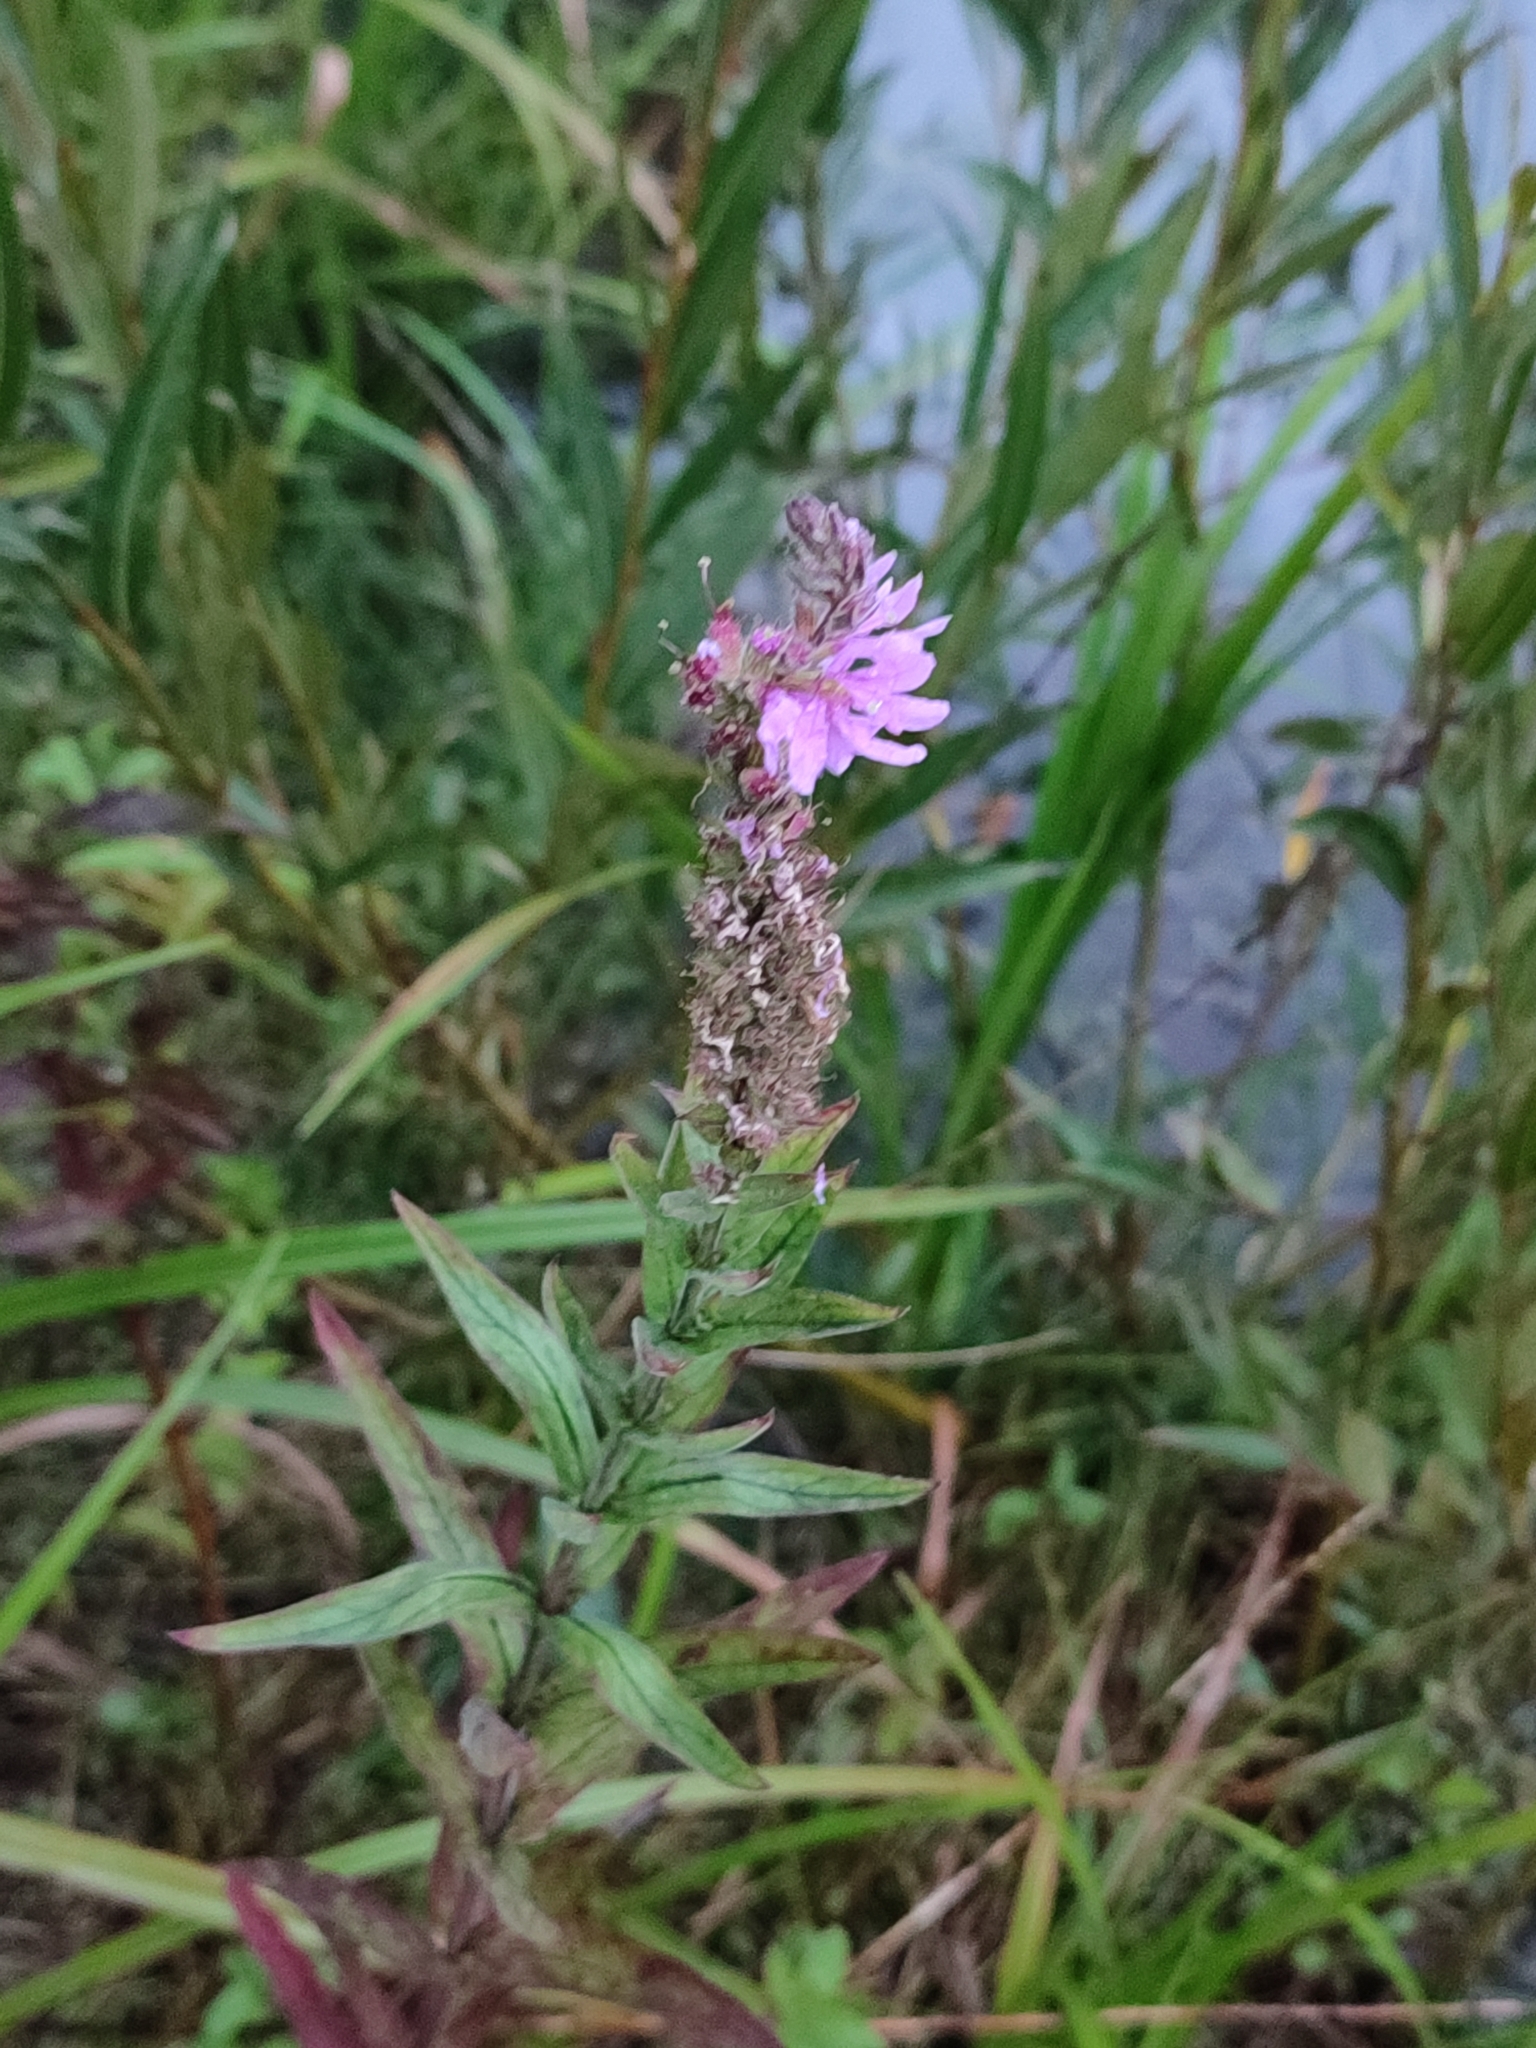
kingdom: Plantae
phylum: Tracheophyta
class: Magnoliopsida
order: Myrtales
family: Lythraceae
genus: Lythrum
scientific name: Lythrum salicaria
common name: Purple loosestrife
